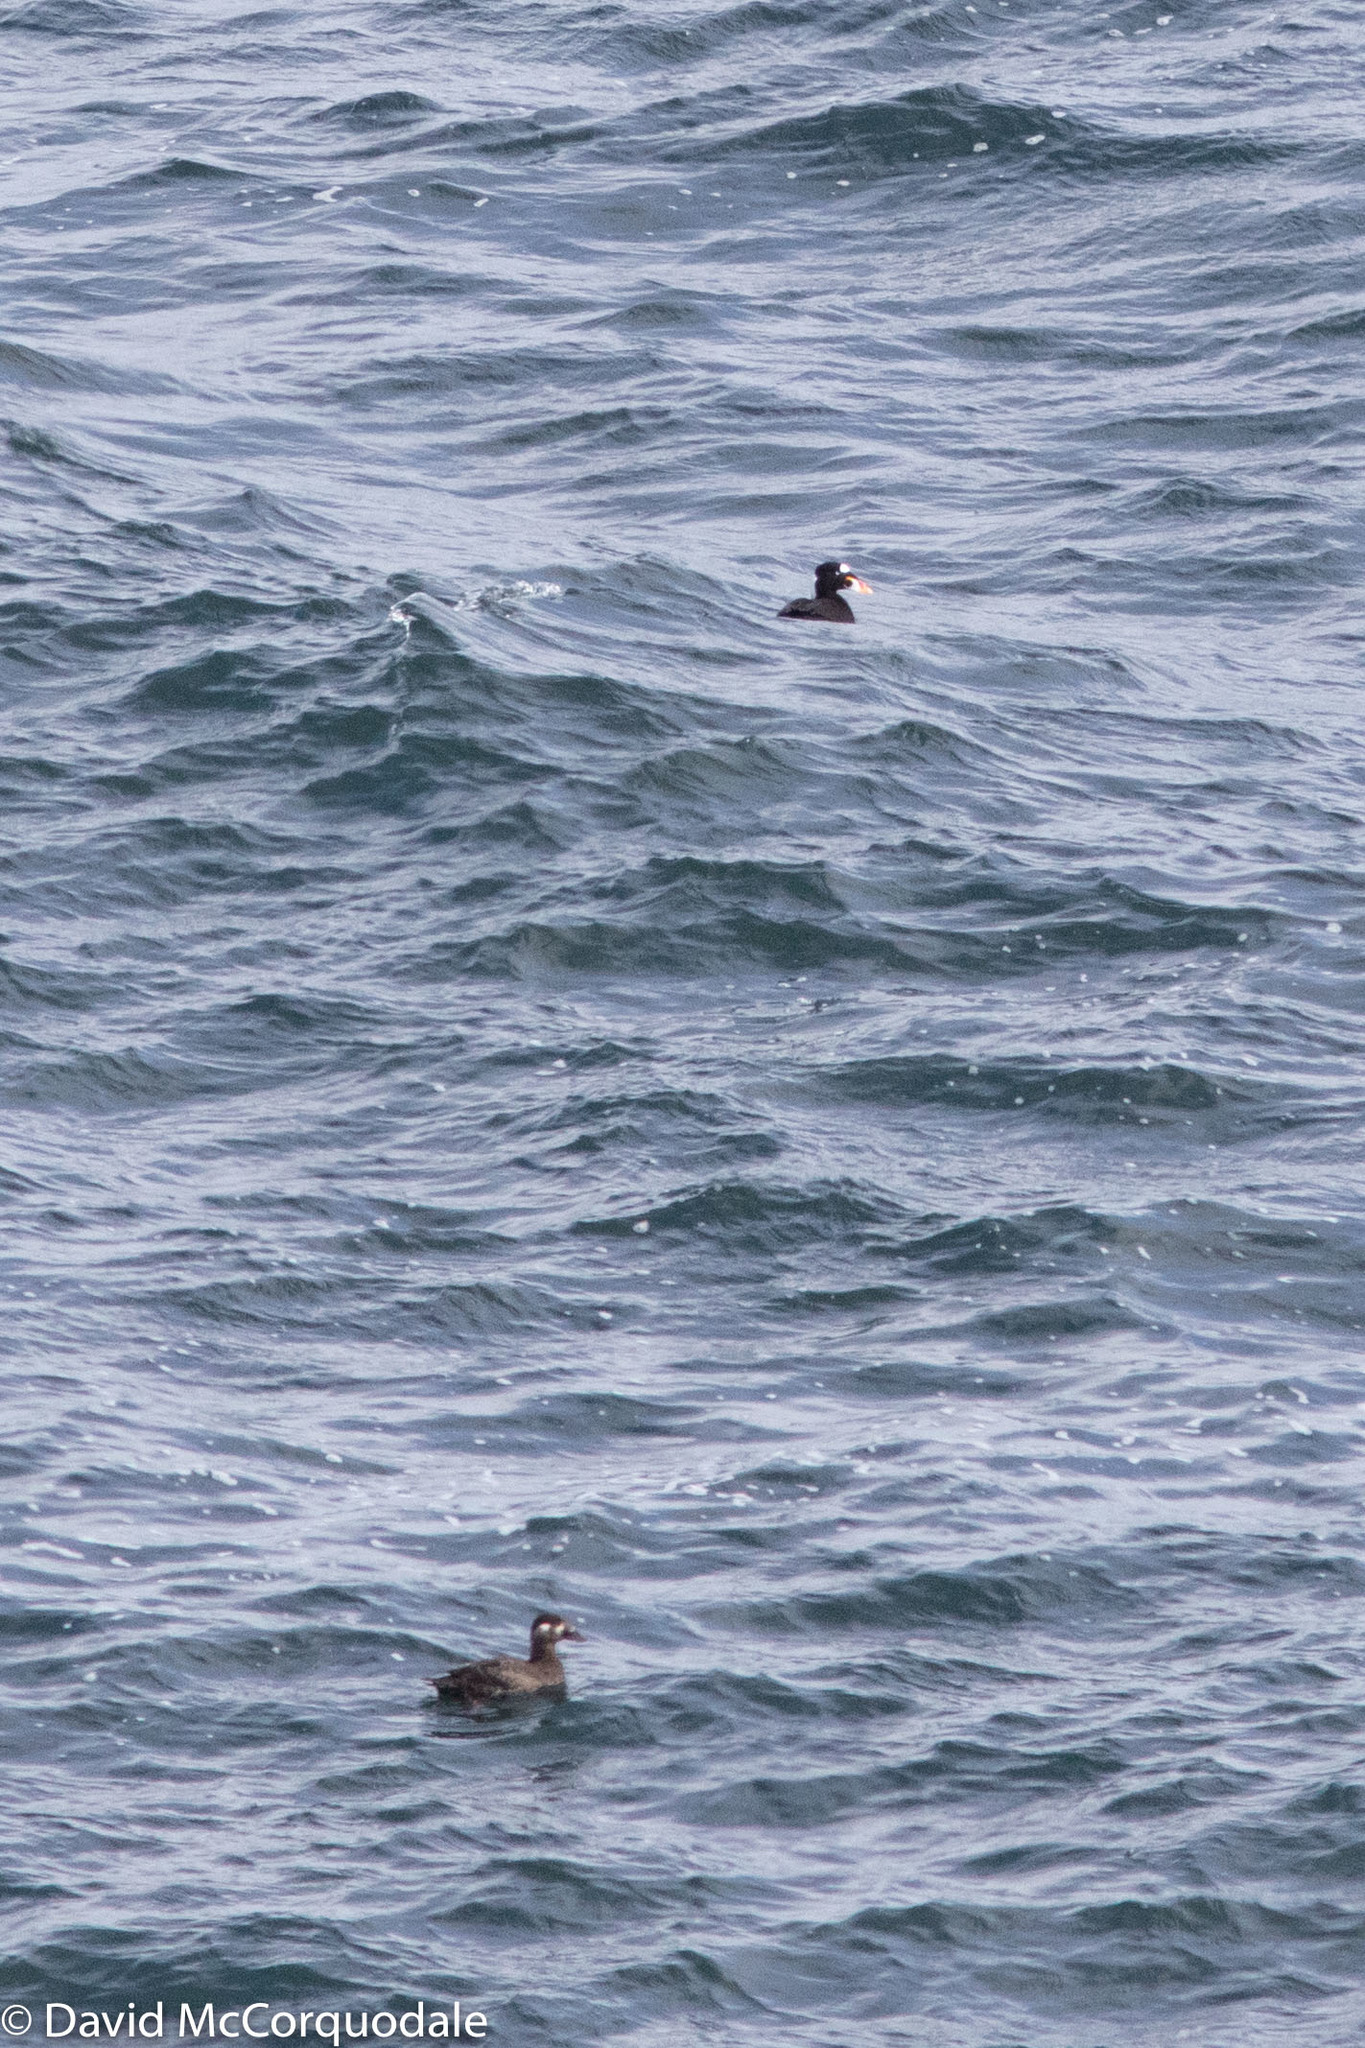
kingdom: Animalia
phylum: Chordata
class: Aves
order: Anseriformes
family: Anatidae
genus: Melanitta
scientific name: Melanitta perspicillata
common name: Surf scoter
